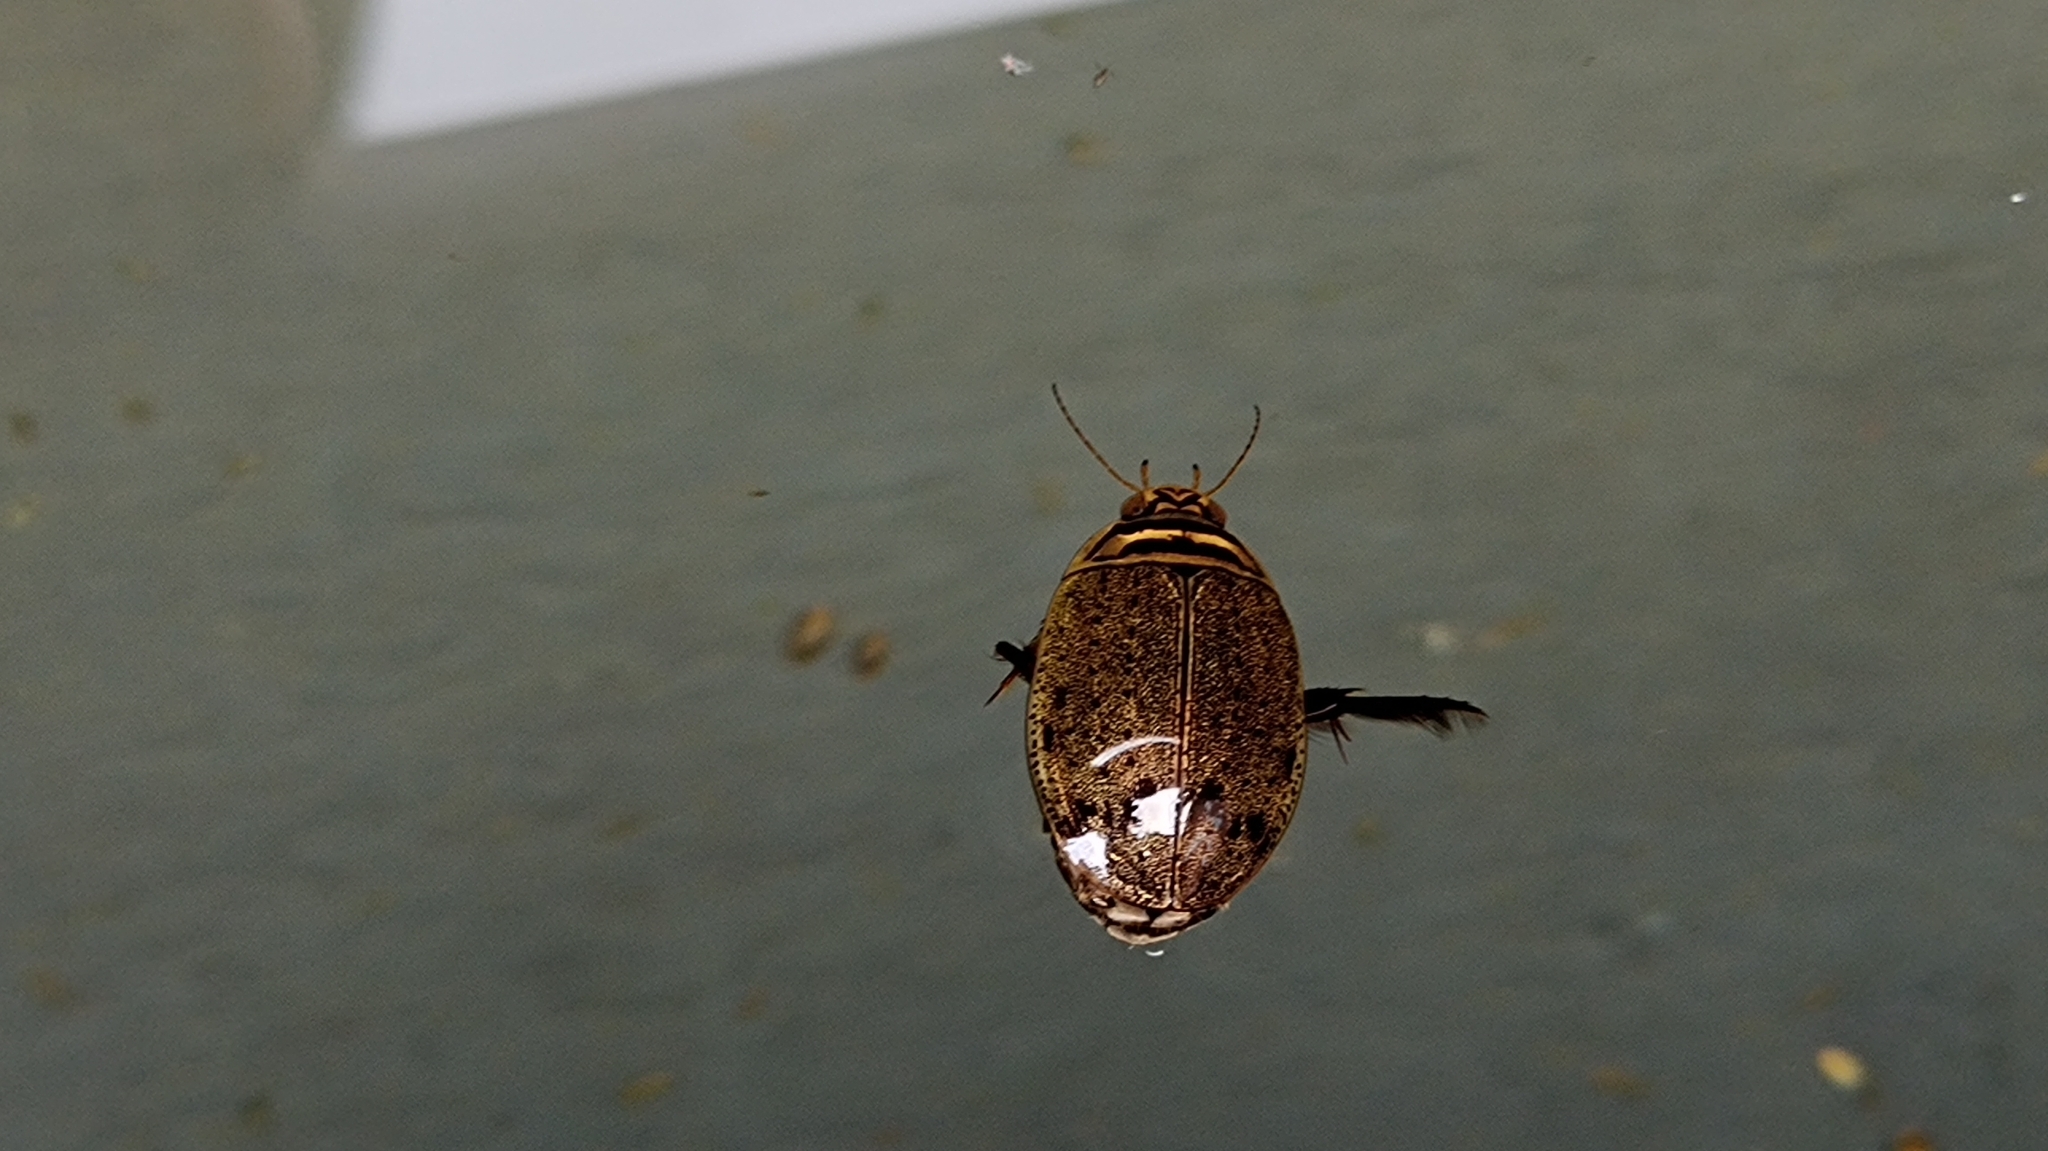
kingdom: Animalia
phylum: Arthropoda
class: Insecta
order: Coleoptera
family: Dytiscidae
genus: Acilius
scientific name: Acilius sulcatus
